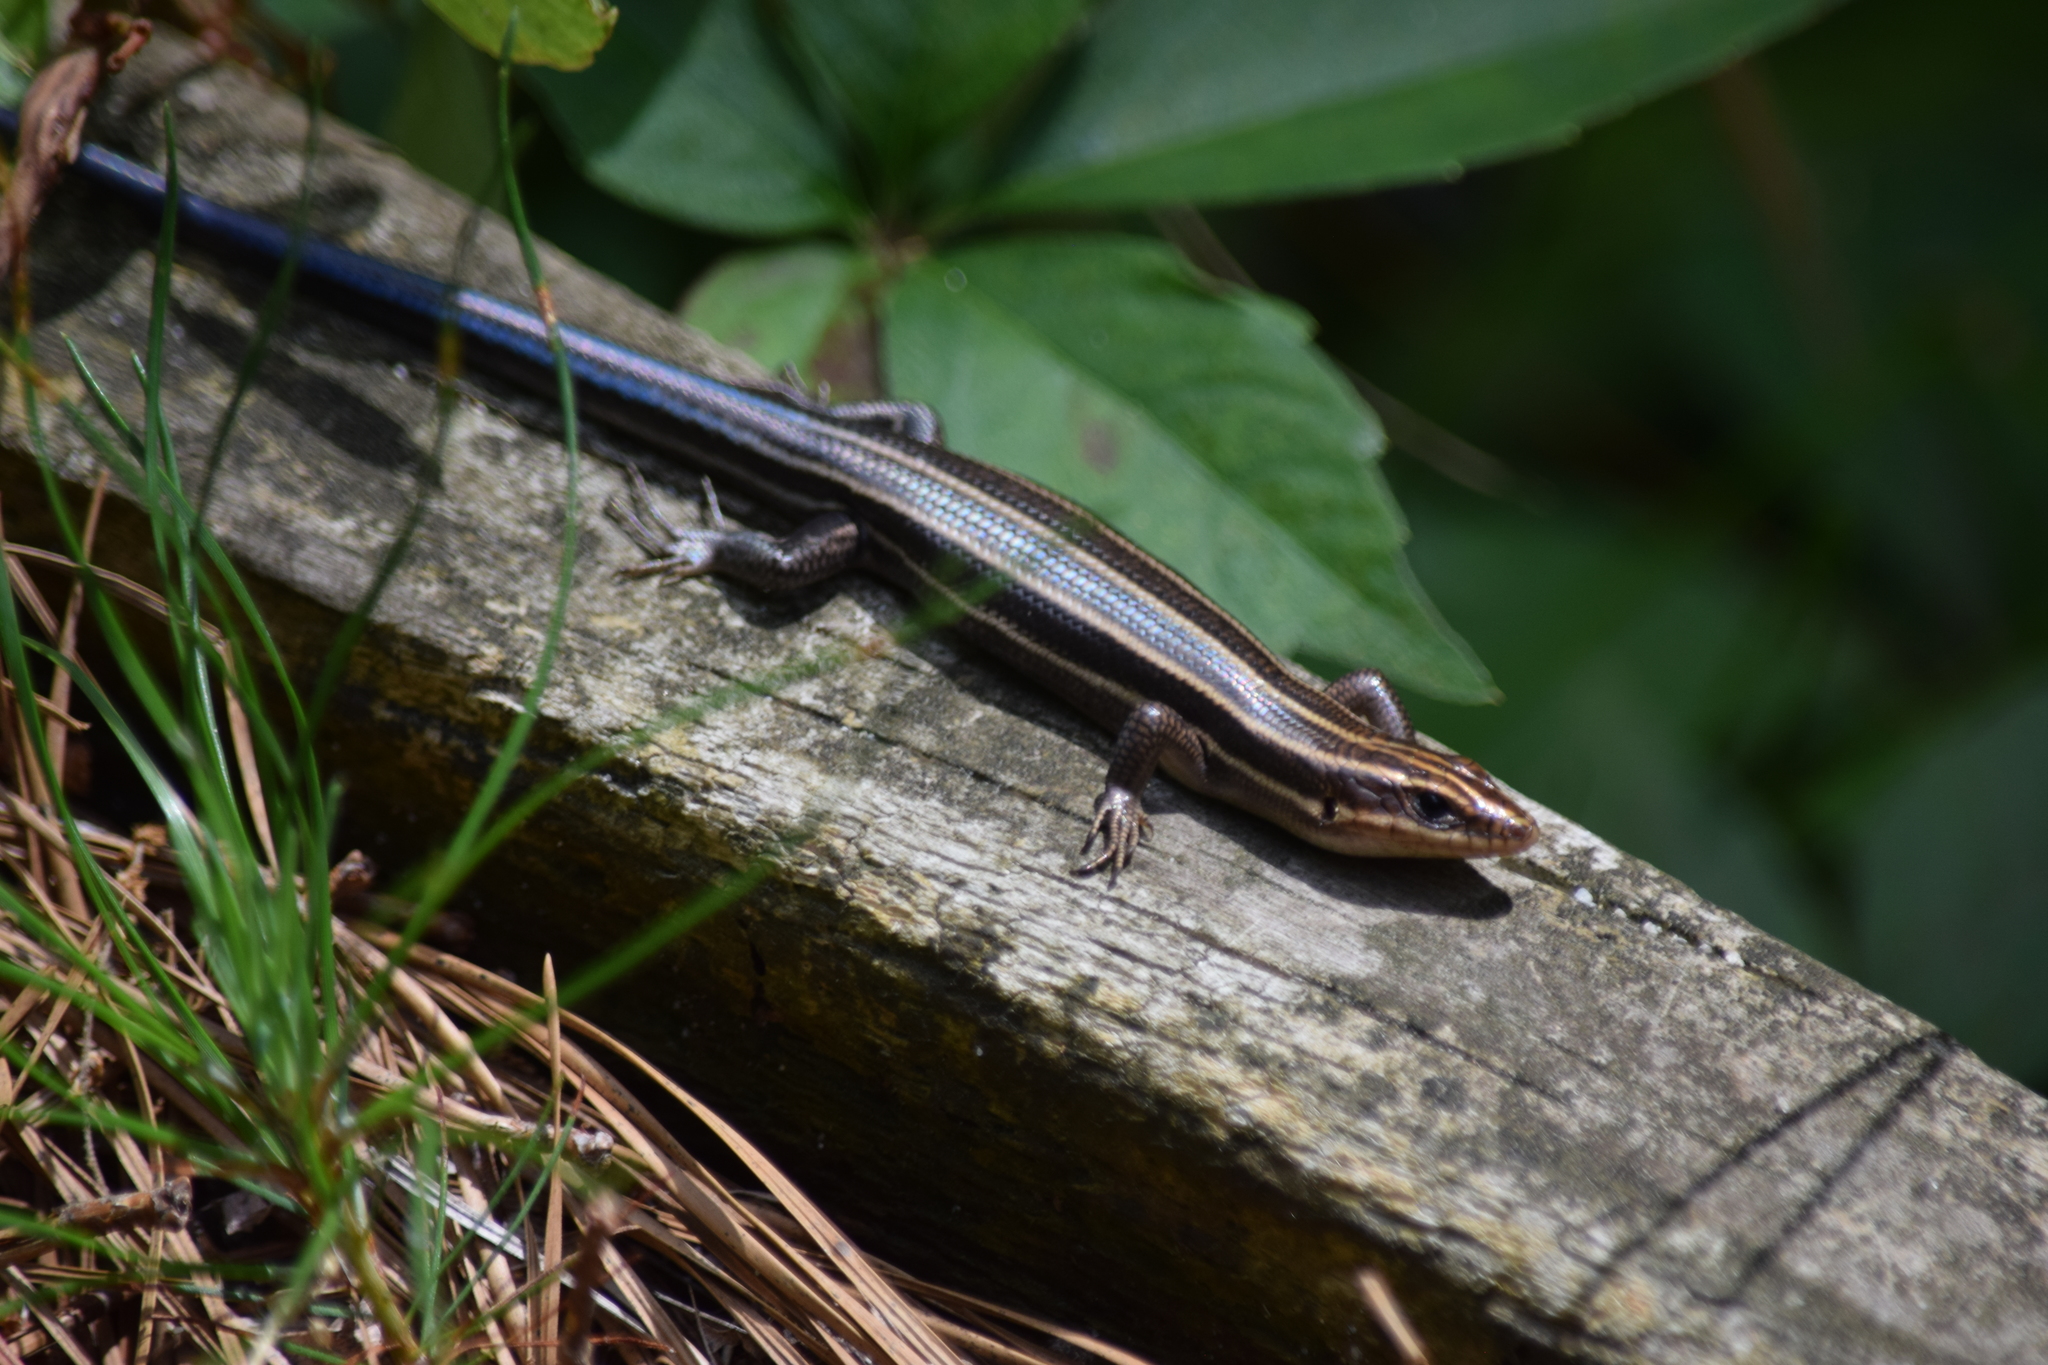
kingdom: Animalia
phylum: Chordata
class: Squamata
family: Scincidae
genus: Plestiodon
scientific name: Plestiodon fasciatus
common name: Five-lined skink
